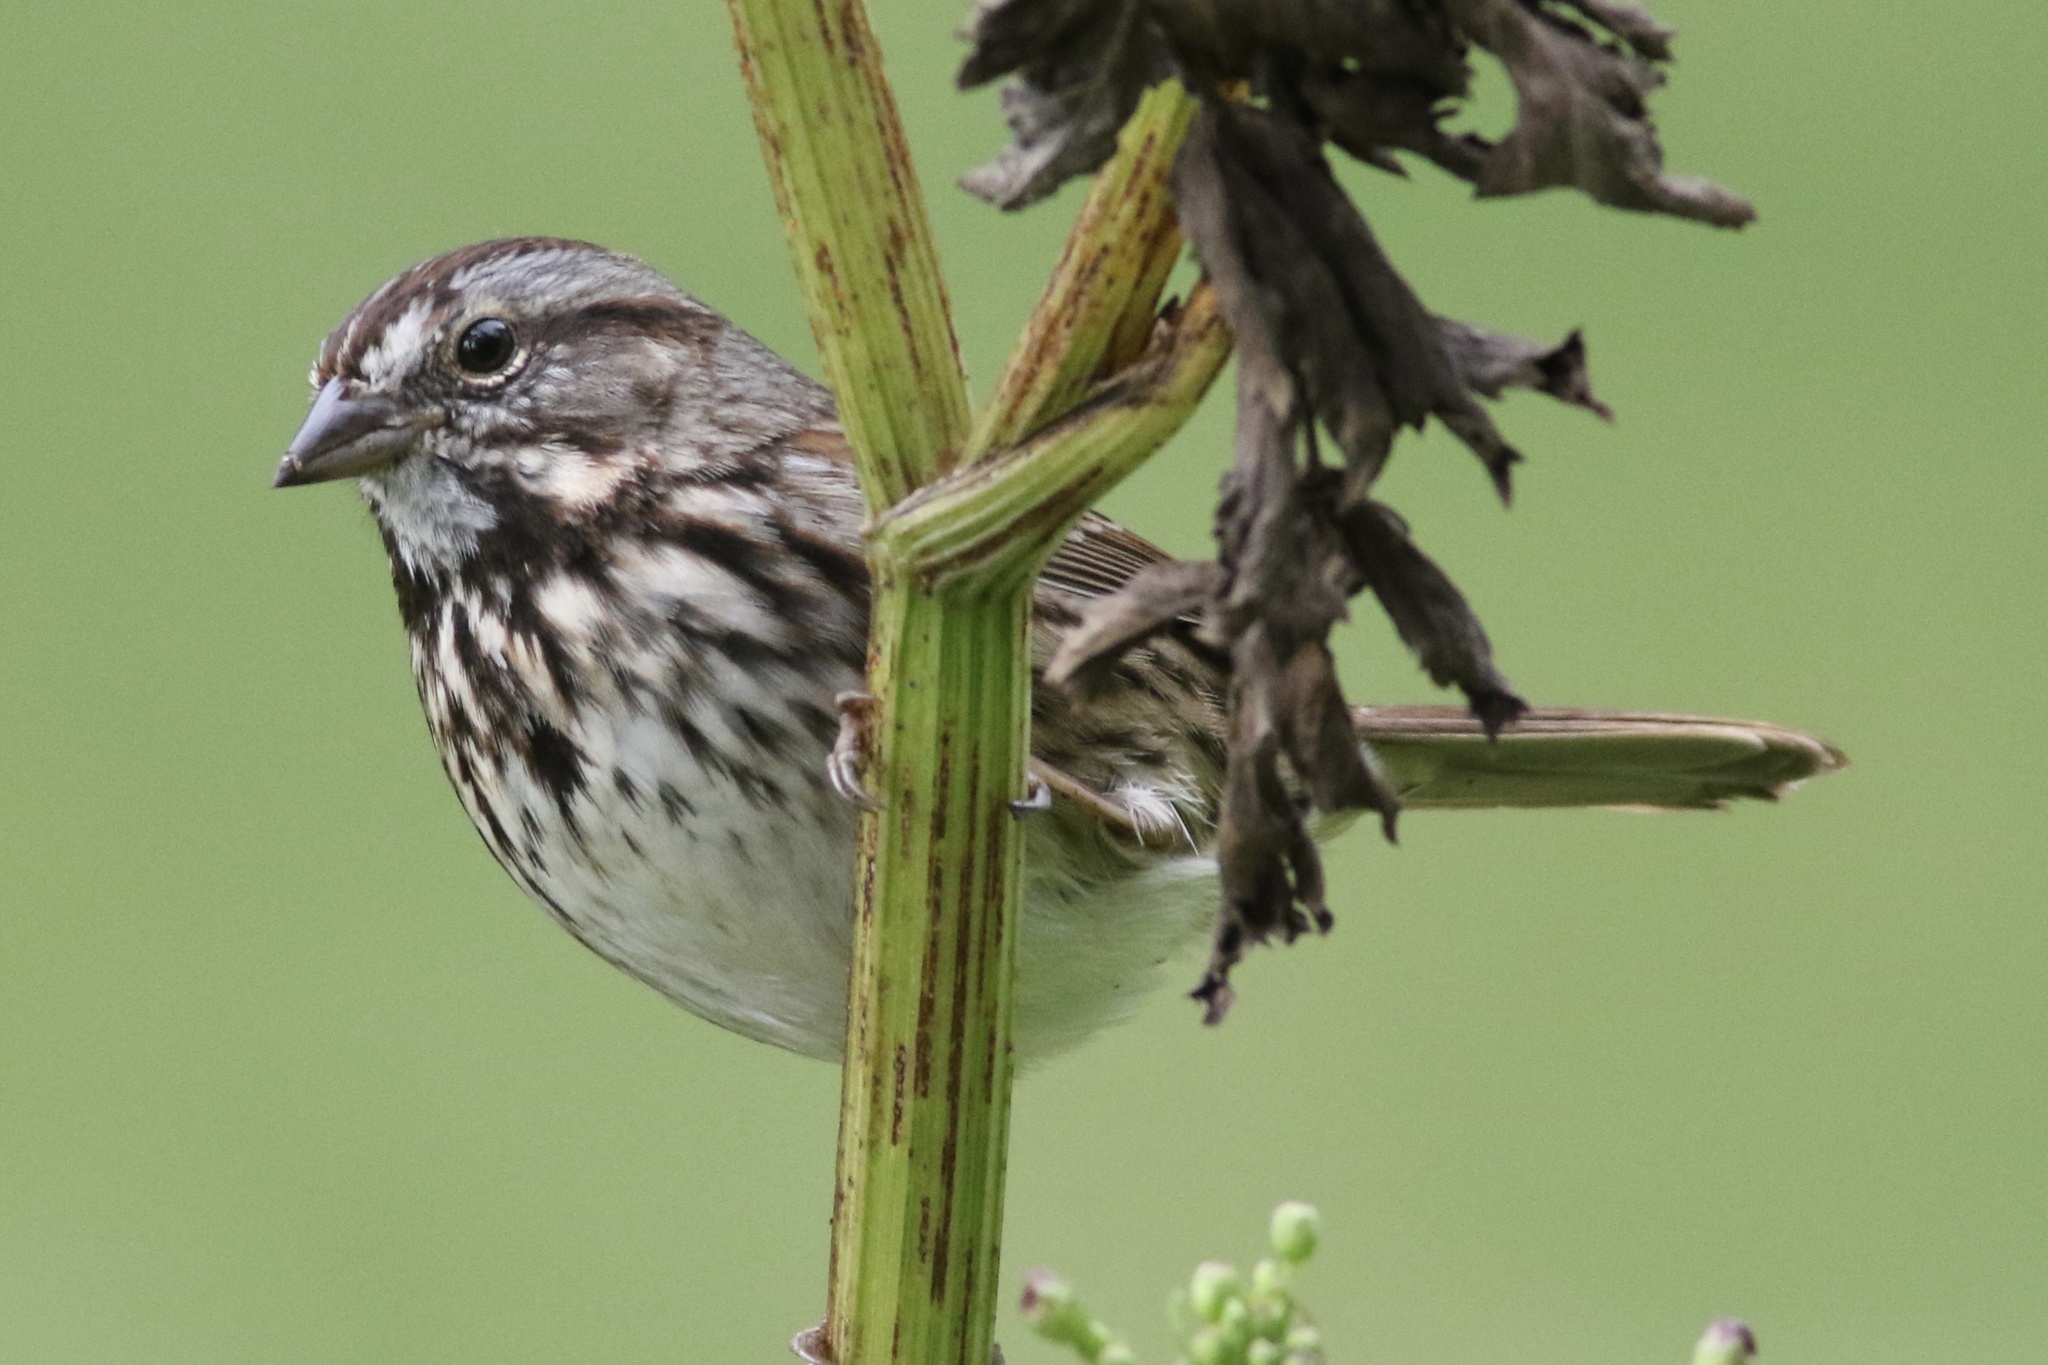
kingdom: Animalia
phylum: Chordata
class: Aves
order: Passeriformes
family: Passerellidae
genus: Melospiza
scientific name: Melospiza melodia
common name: Song sparrow
